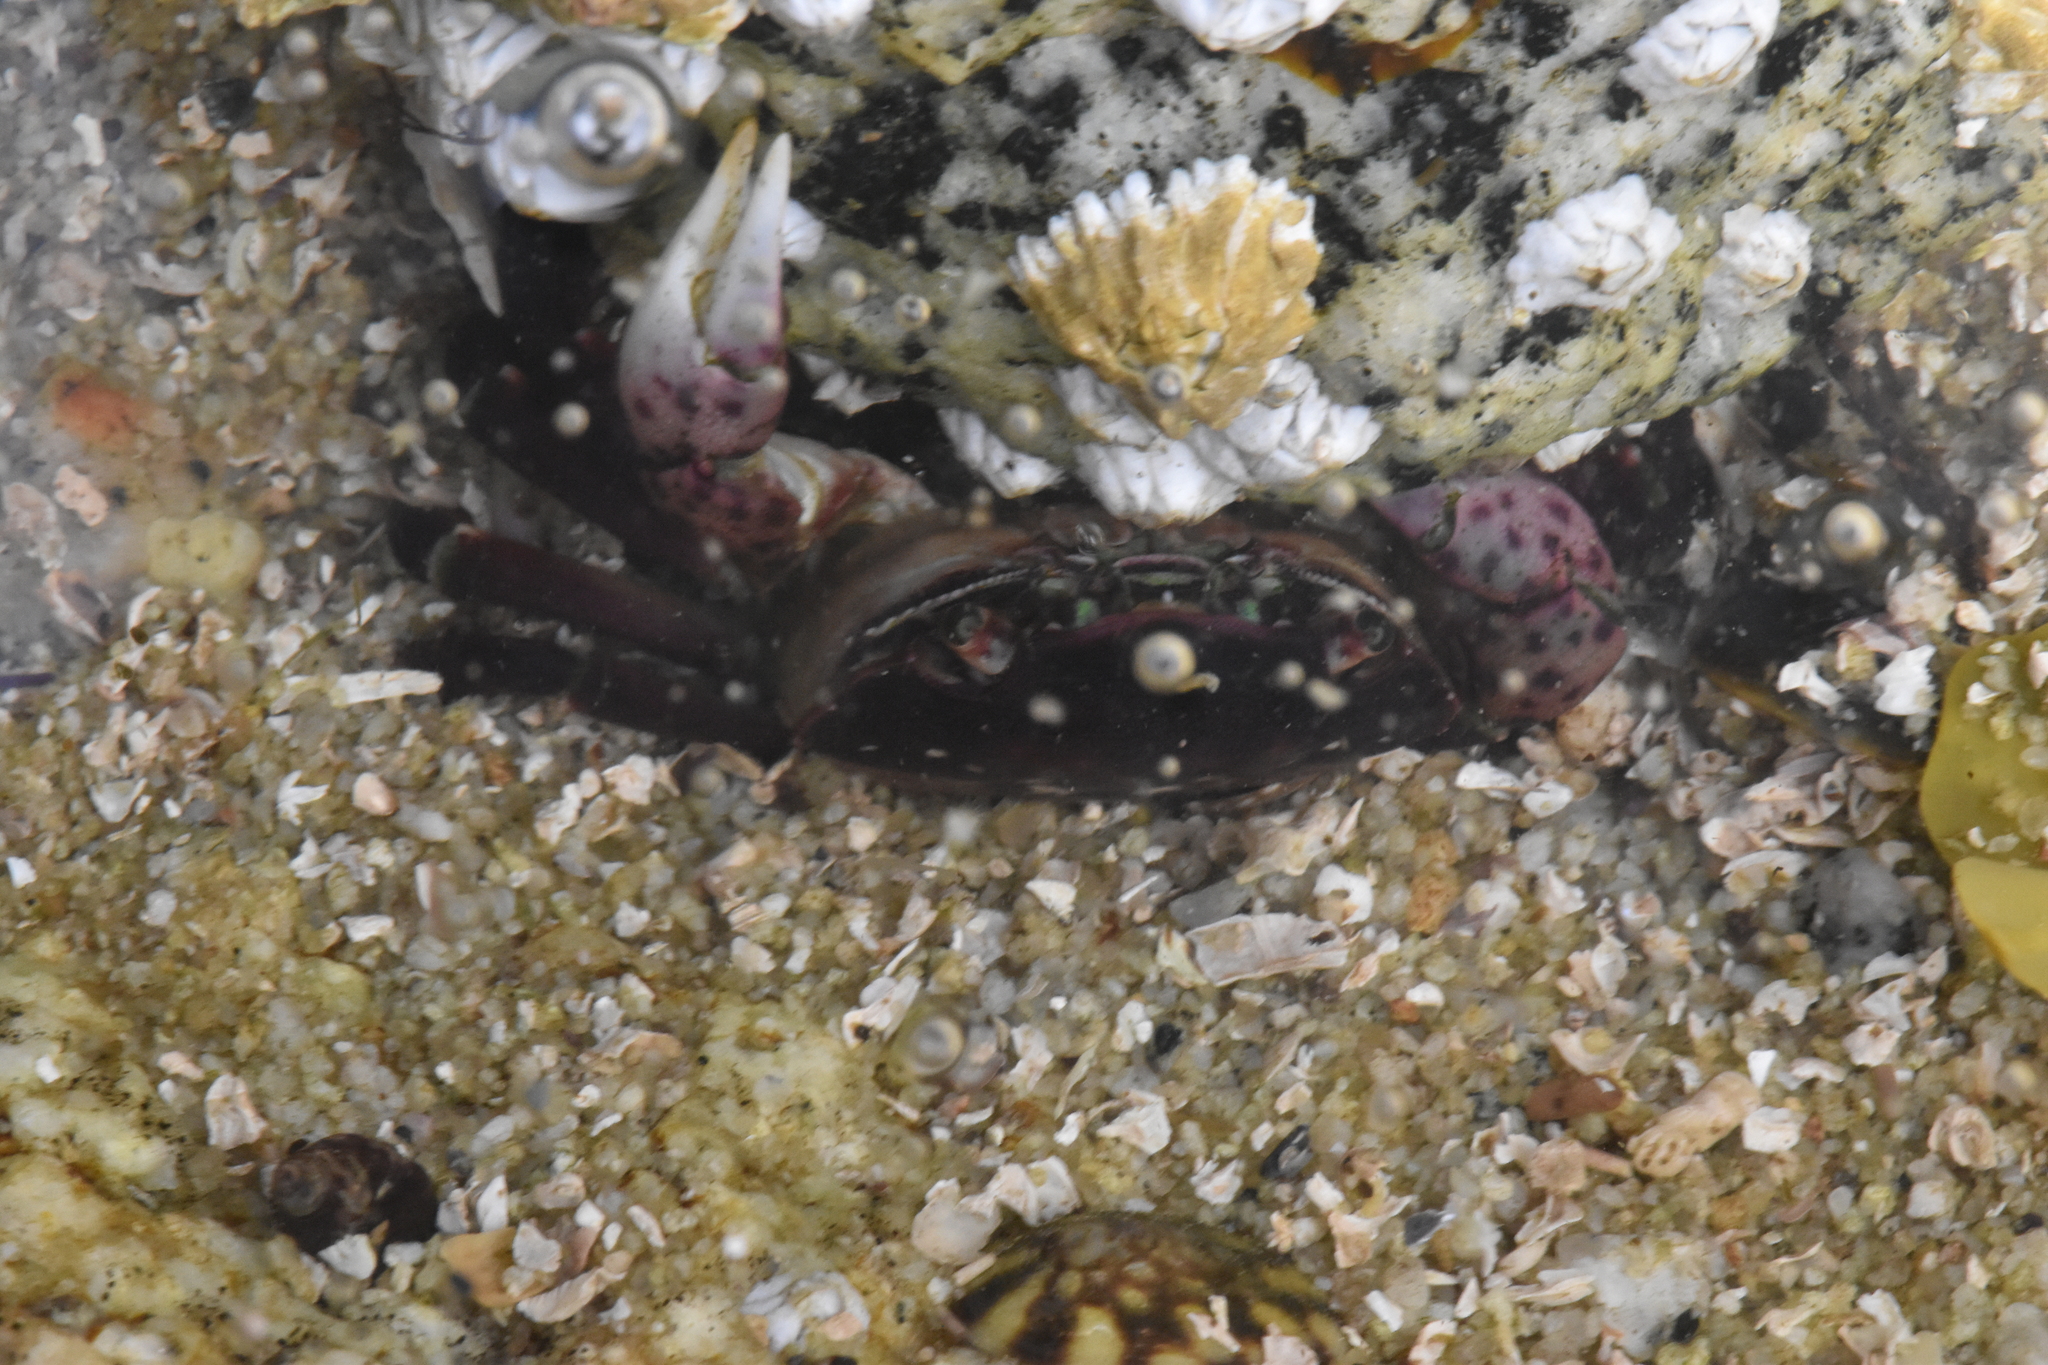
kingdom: Animalia
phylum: Arthropoda
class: Malacostraca
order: Decapoda
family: Varunidae
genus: Hemigrapsus
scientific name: Hemigrapsus nudus
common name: Purple shore crab
